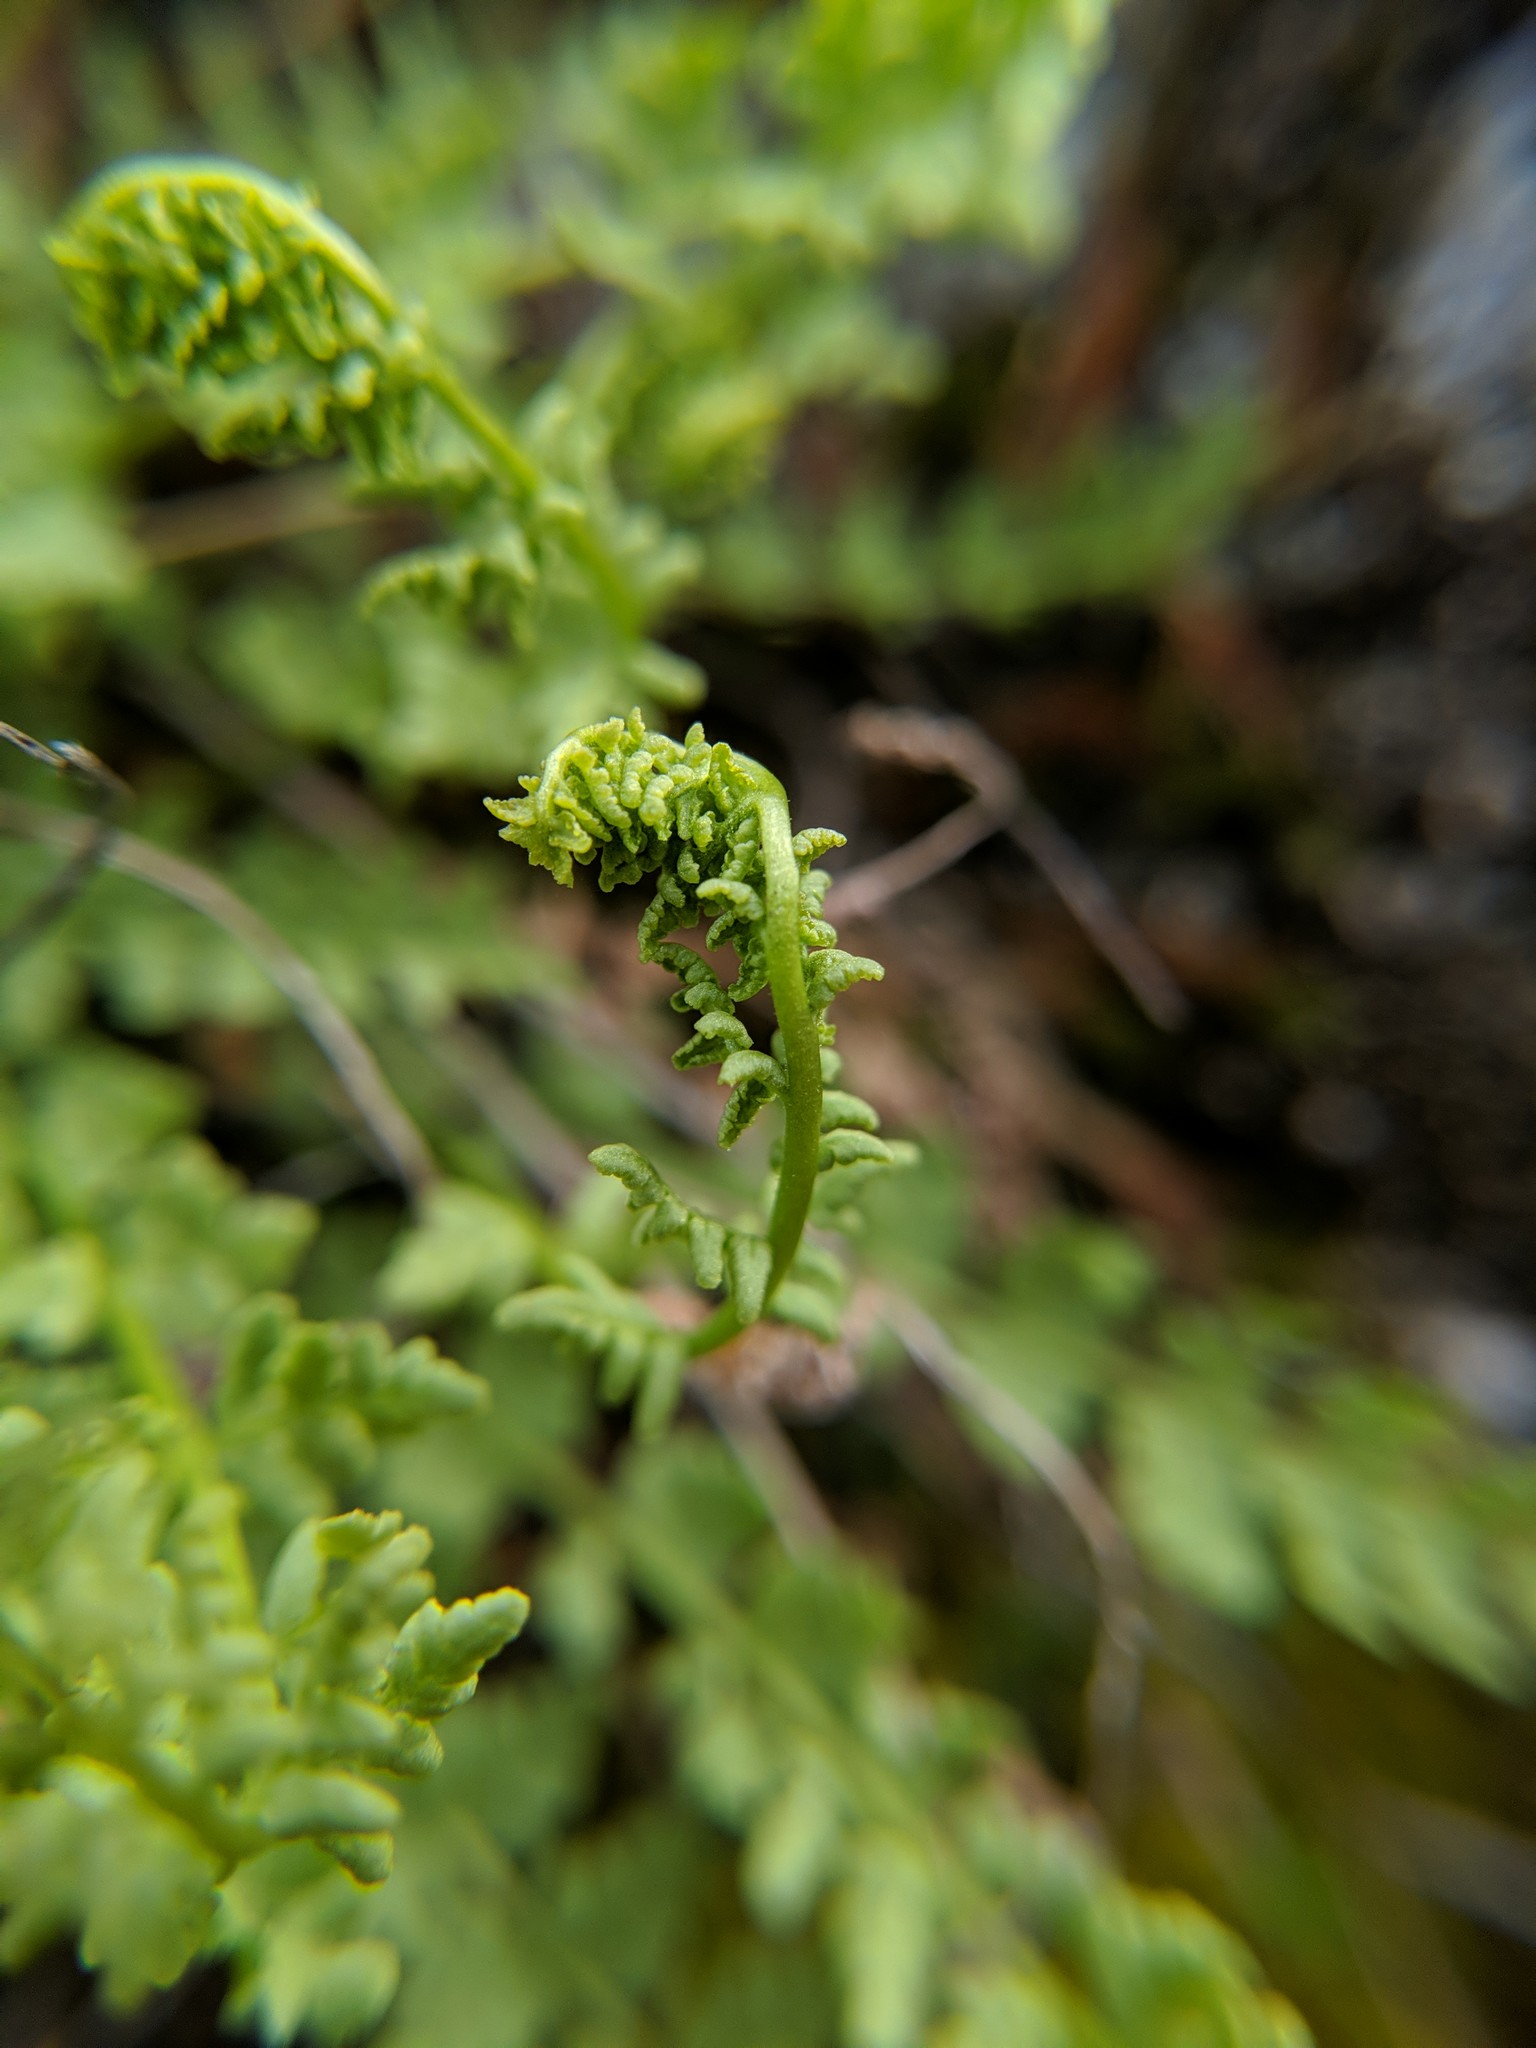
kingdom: Plantae
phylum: Tracheophyta
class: Polypodiopsida
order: Polypodiales
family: Woodsiaceae
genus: Physematium
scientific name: Physematium oreganum
